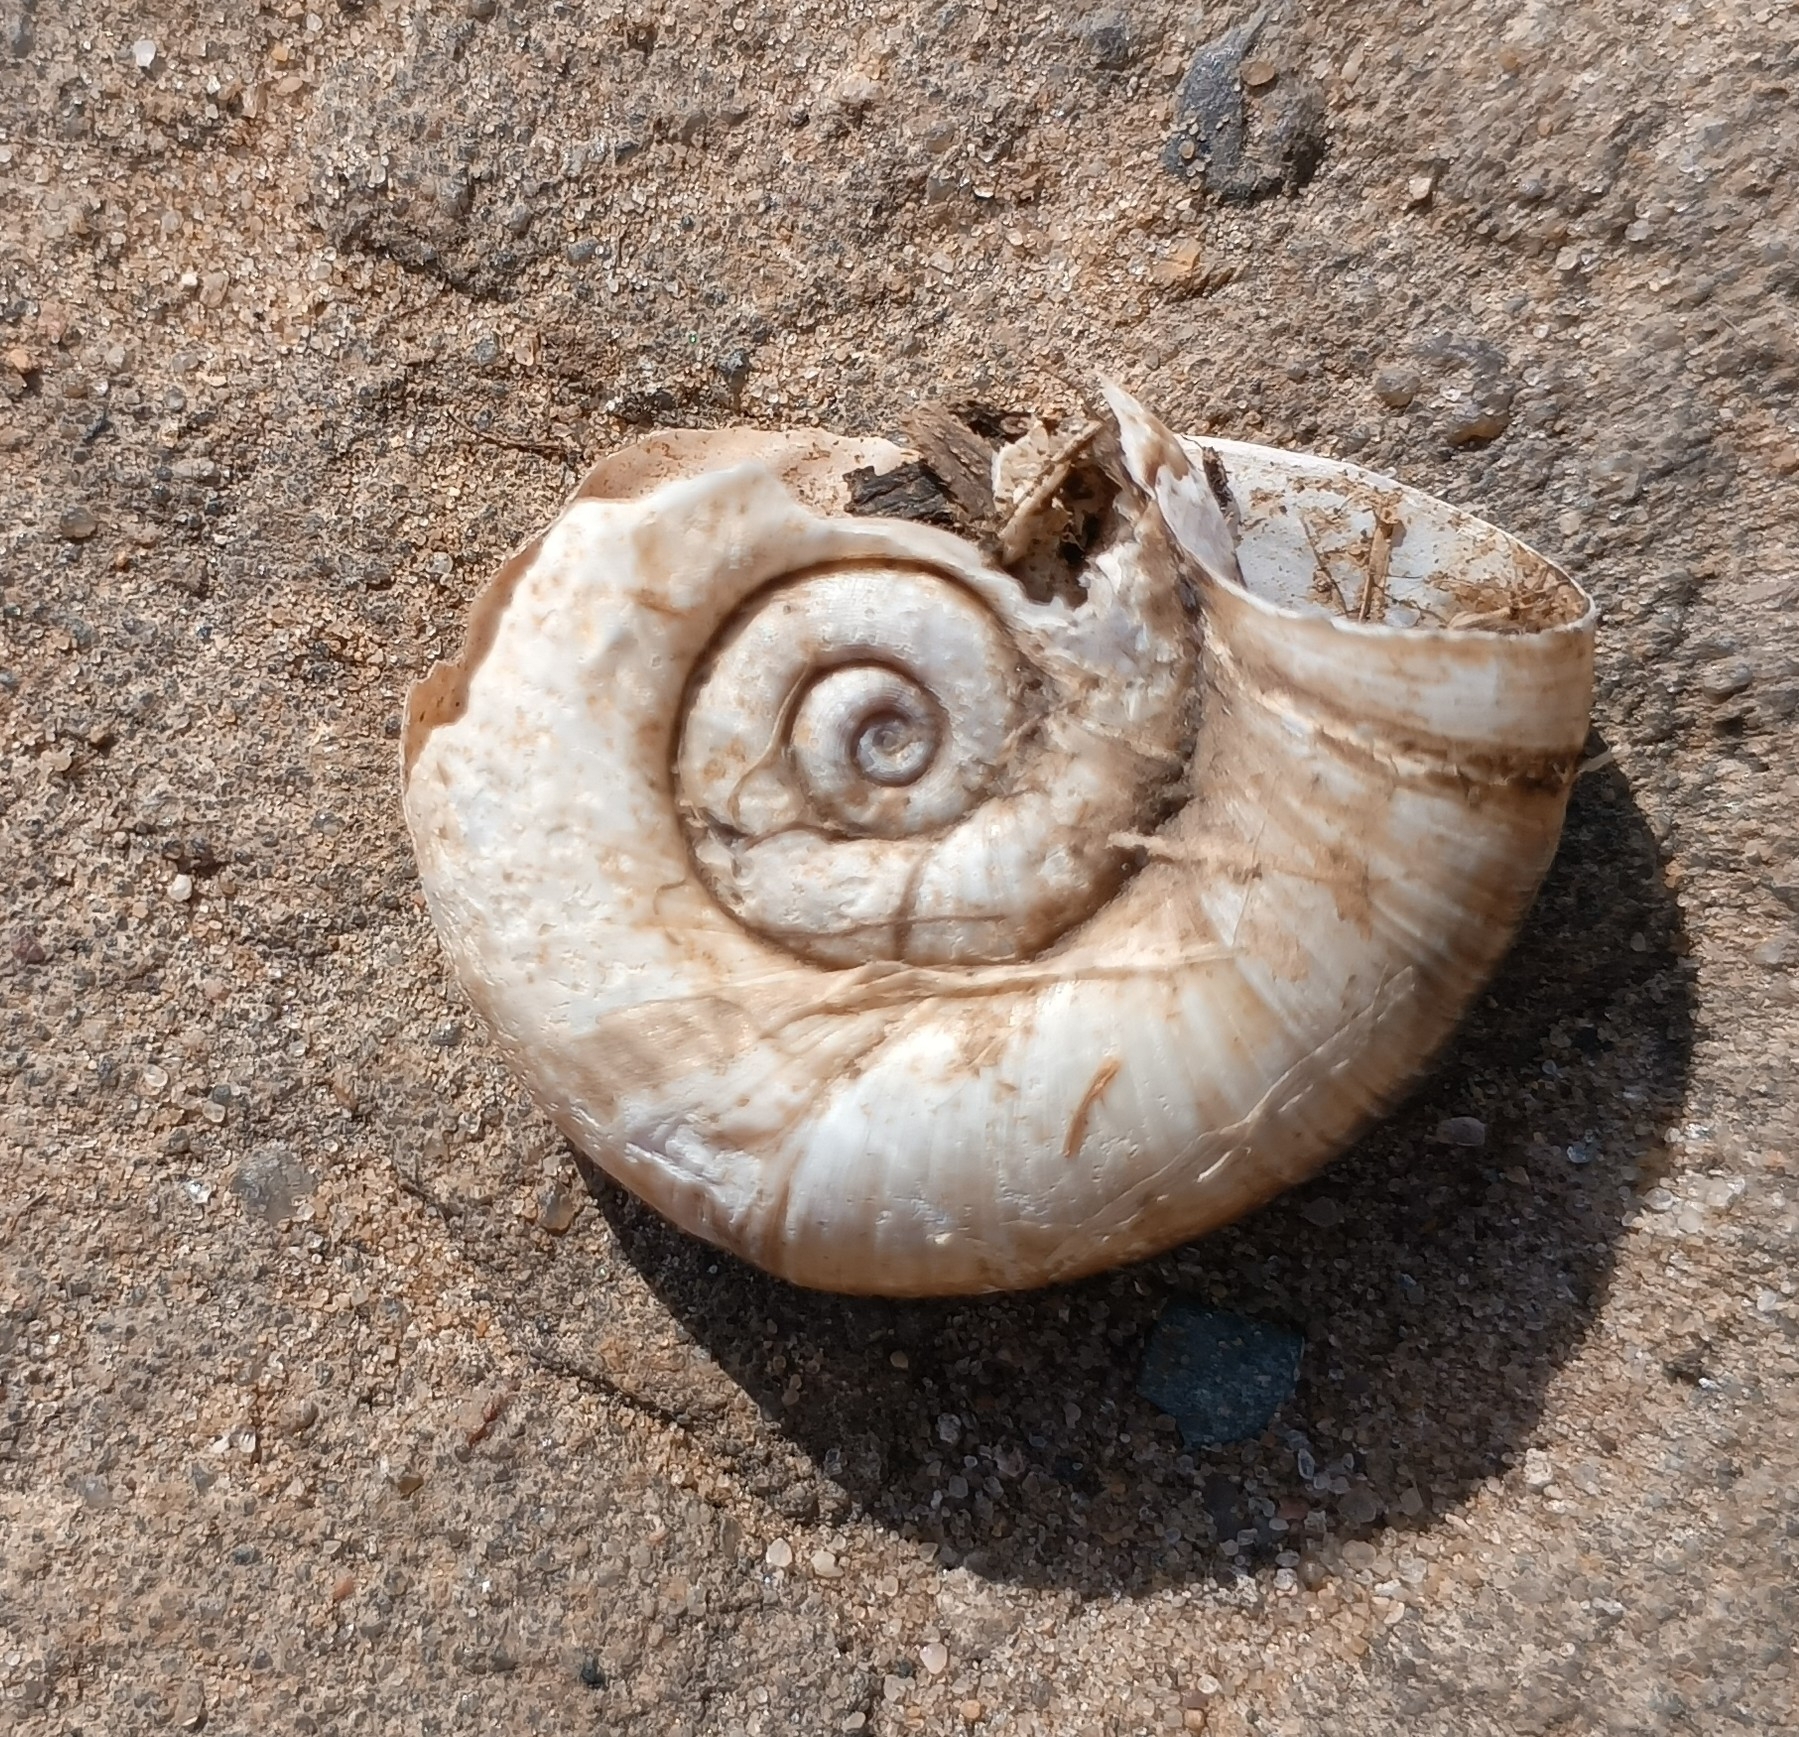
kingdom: Animalia
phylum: Mollusca
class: Gastropoda
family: Planorbidae
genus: Planorbarius
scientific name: Planorbarius corneus
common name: Great ramshorn
